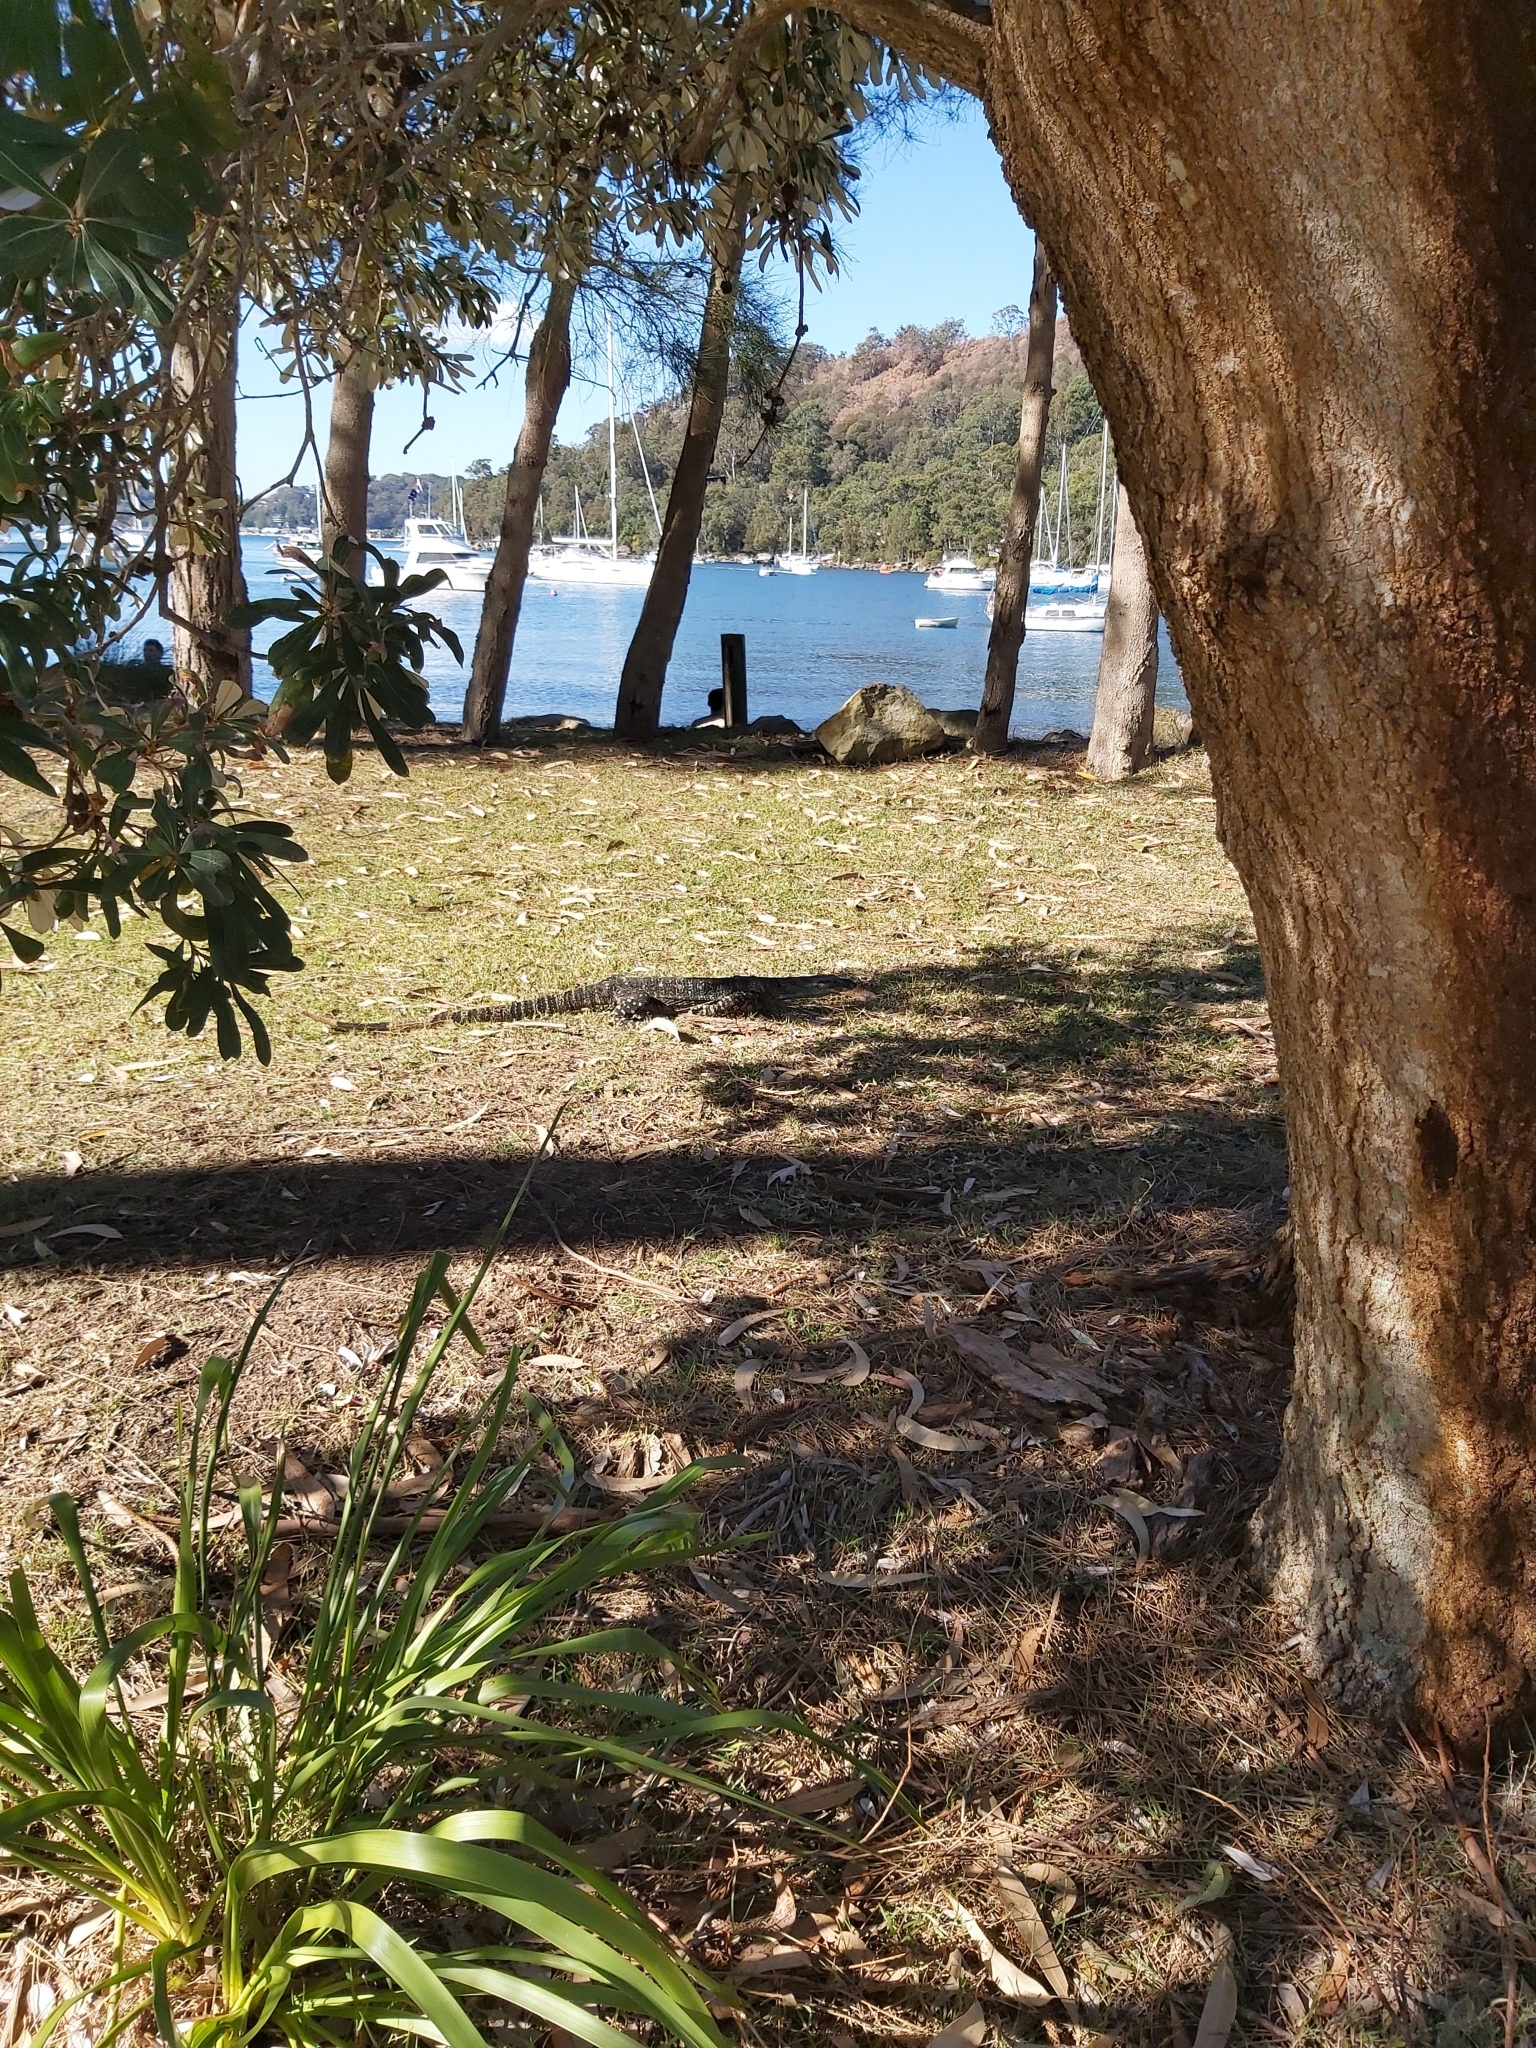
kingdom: Animalia
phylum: Chordata
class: Squamata
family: Varanidae
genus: Varanus
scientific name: Varanus varius
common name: Lace monitor
